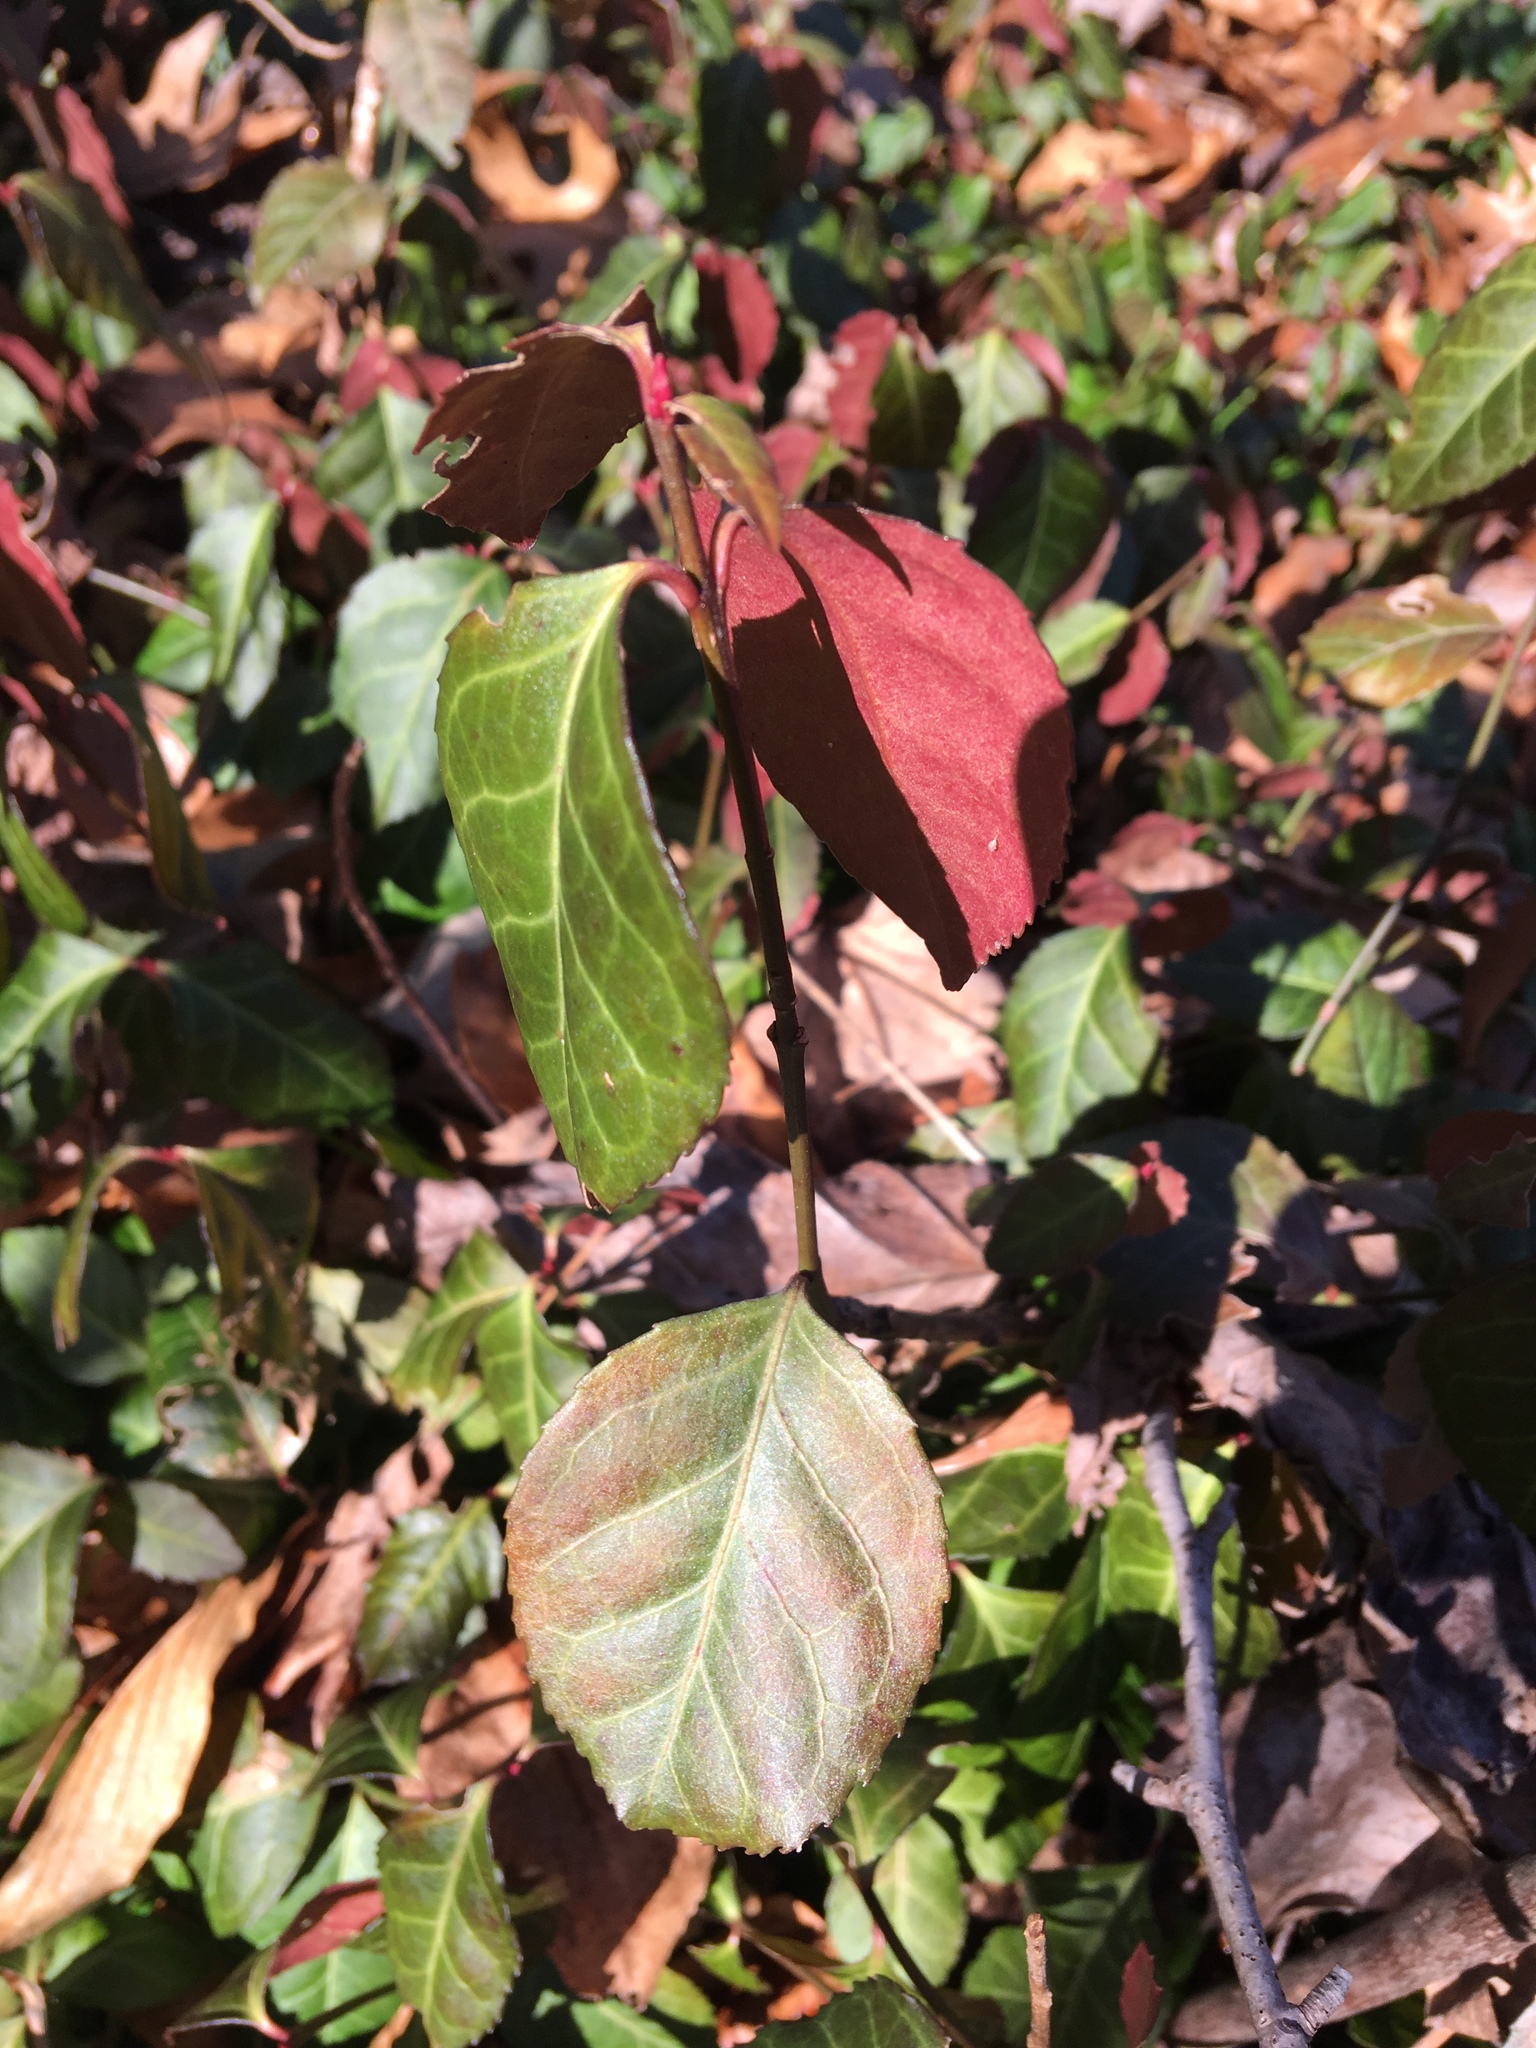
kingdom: Plantae
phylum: Tracheophyta
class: Magnoliopsida
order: Celastrales
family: Celastraceae
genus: Euonymus
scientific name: Euonymus fortunei
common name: Climbing euonymus
